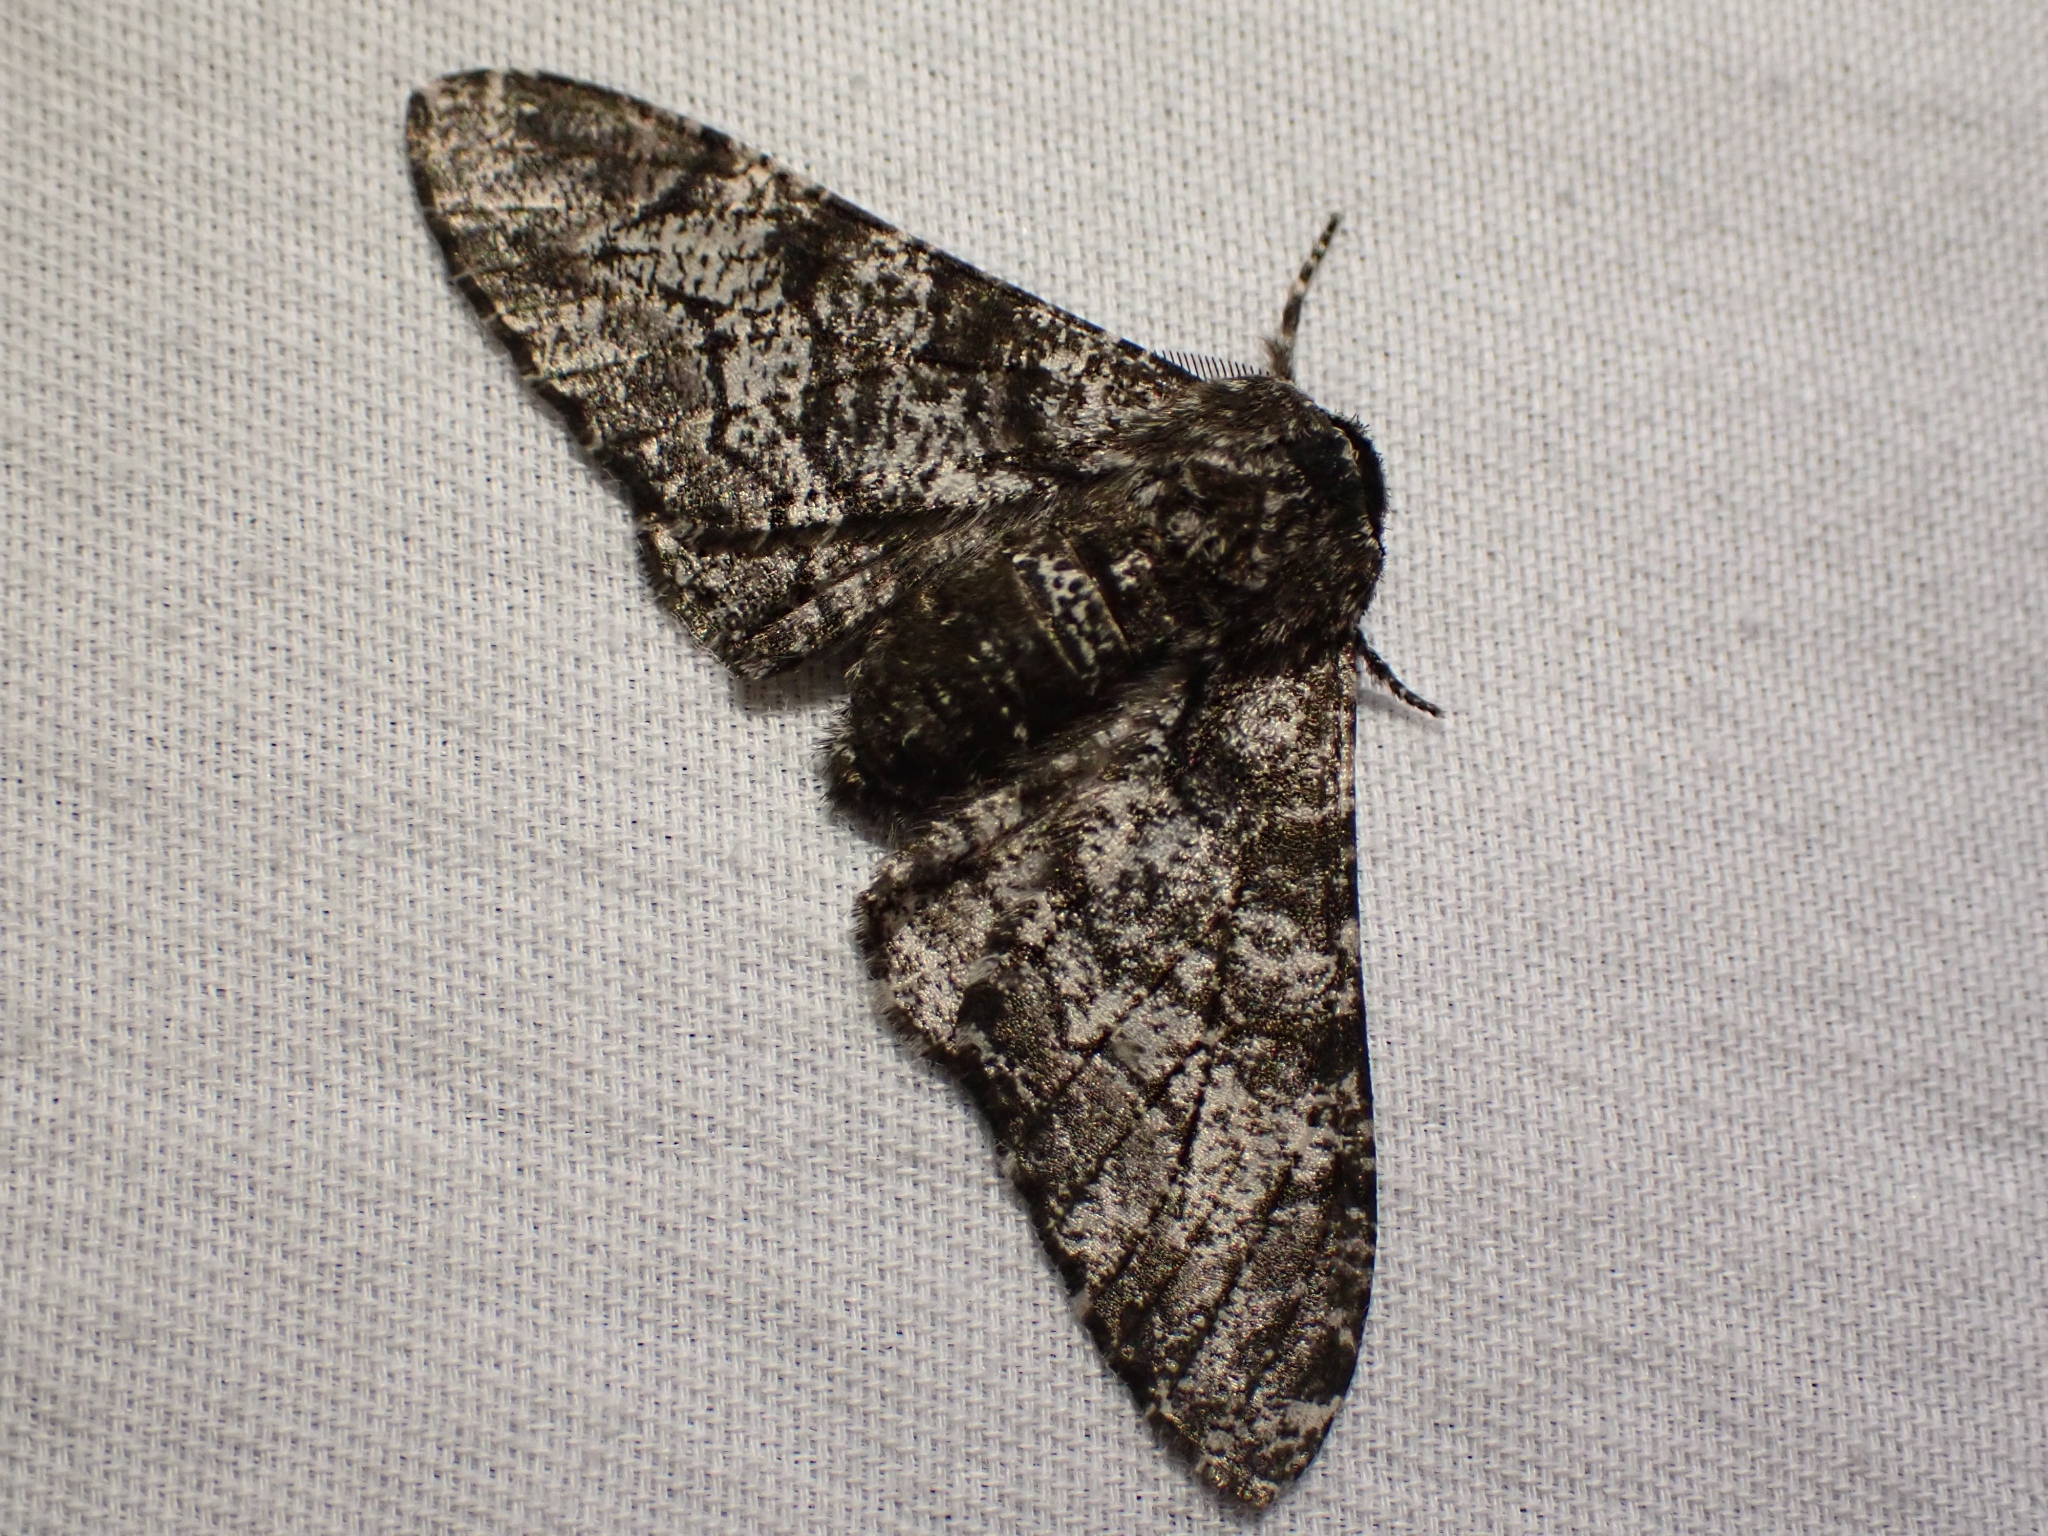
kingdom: Animalia
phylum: Arthropoda
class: Insecta
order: Lepidoptera
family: Geometridae
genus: Biston
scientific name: Biston betularia
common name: Peppered moth
